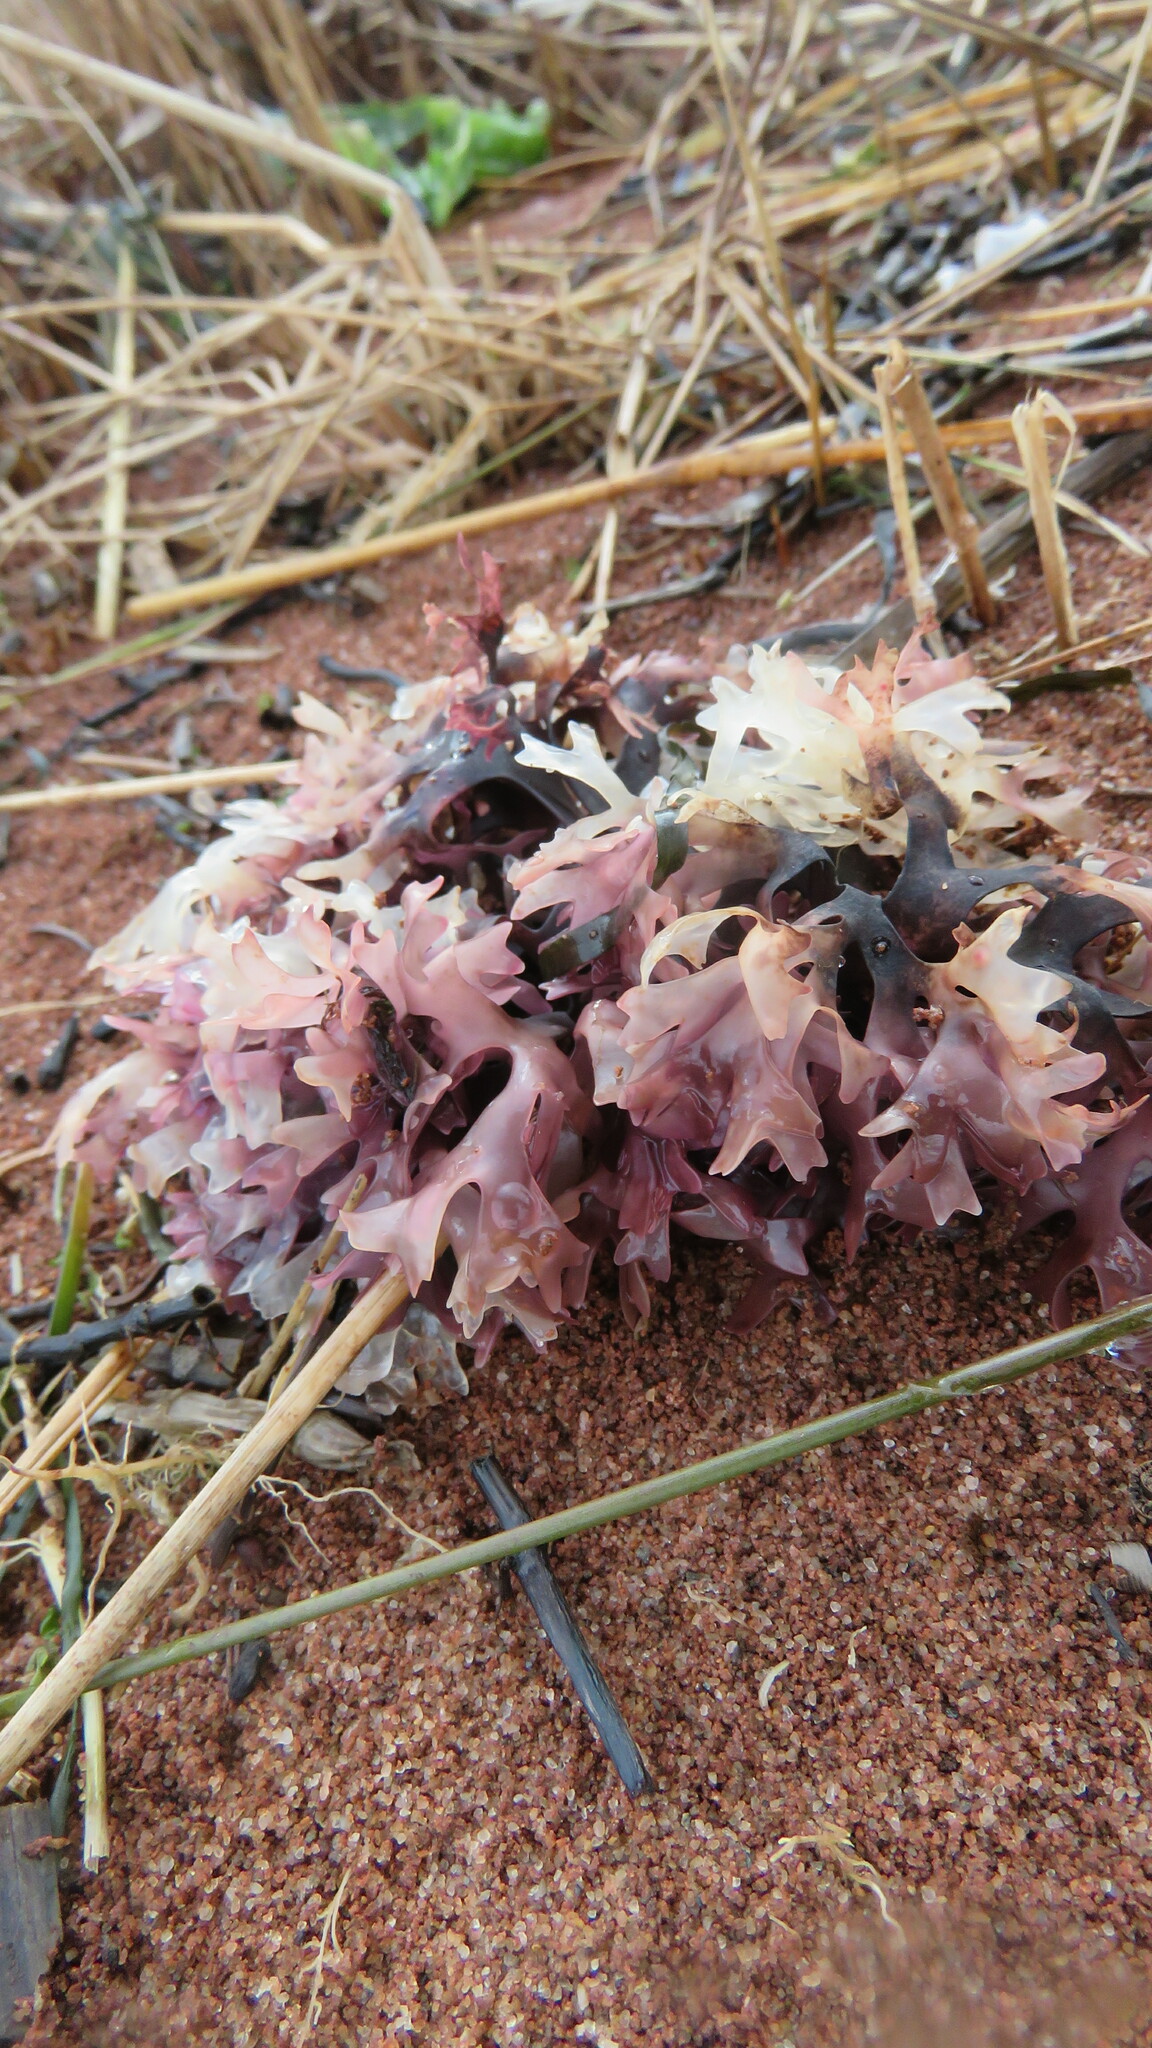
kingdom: Plantae
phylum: Rhodophyta
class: Florideophyceae
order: Gigartinales
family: Gigartinaceae
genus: Chondrus
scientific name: Chondrus crispus
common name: Carrageen
